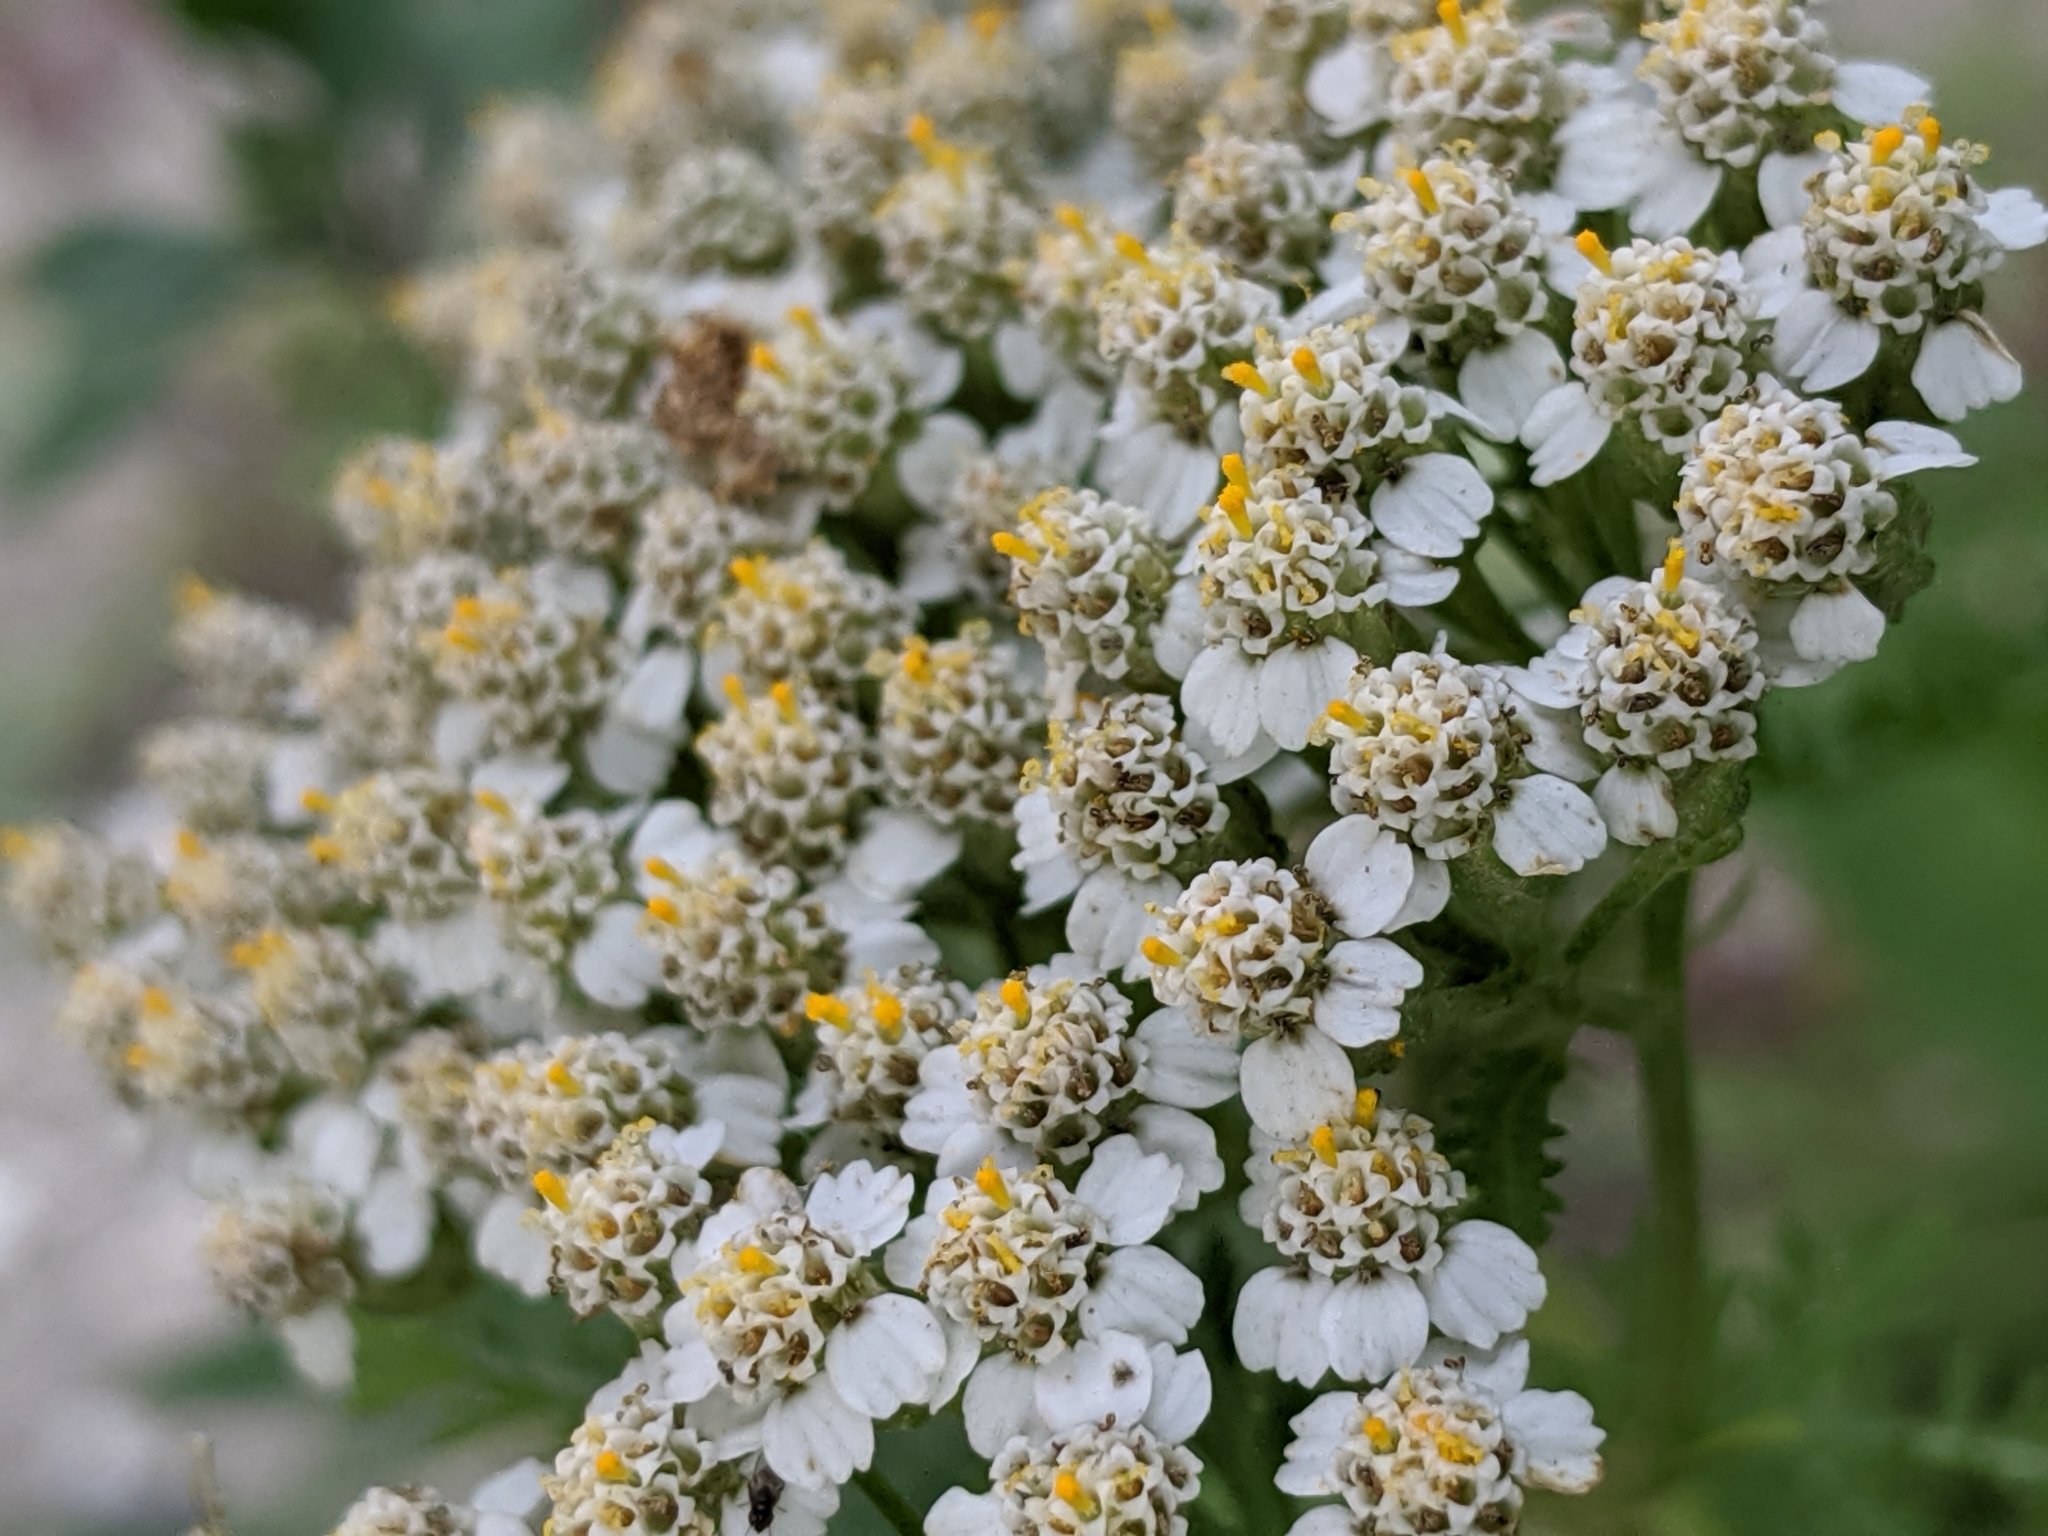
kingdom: Plantae
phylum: Tracheophyta
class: Magnoliopsida
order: Asterales
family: Asteraceae
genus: Achillea
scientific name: Achillea millefolium
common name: Yarrow
